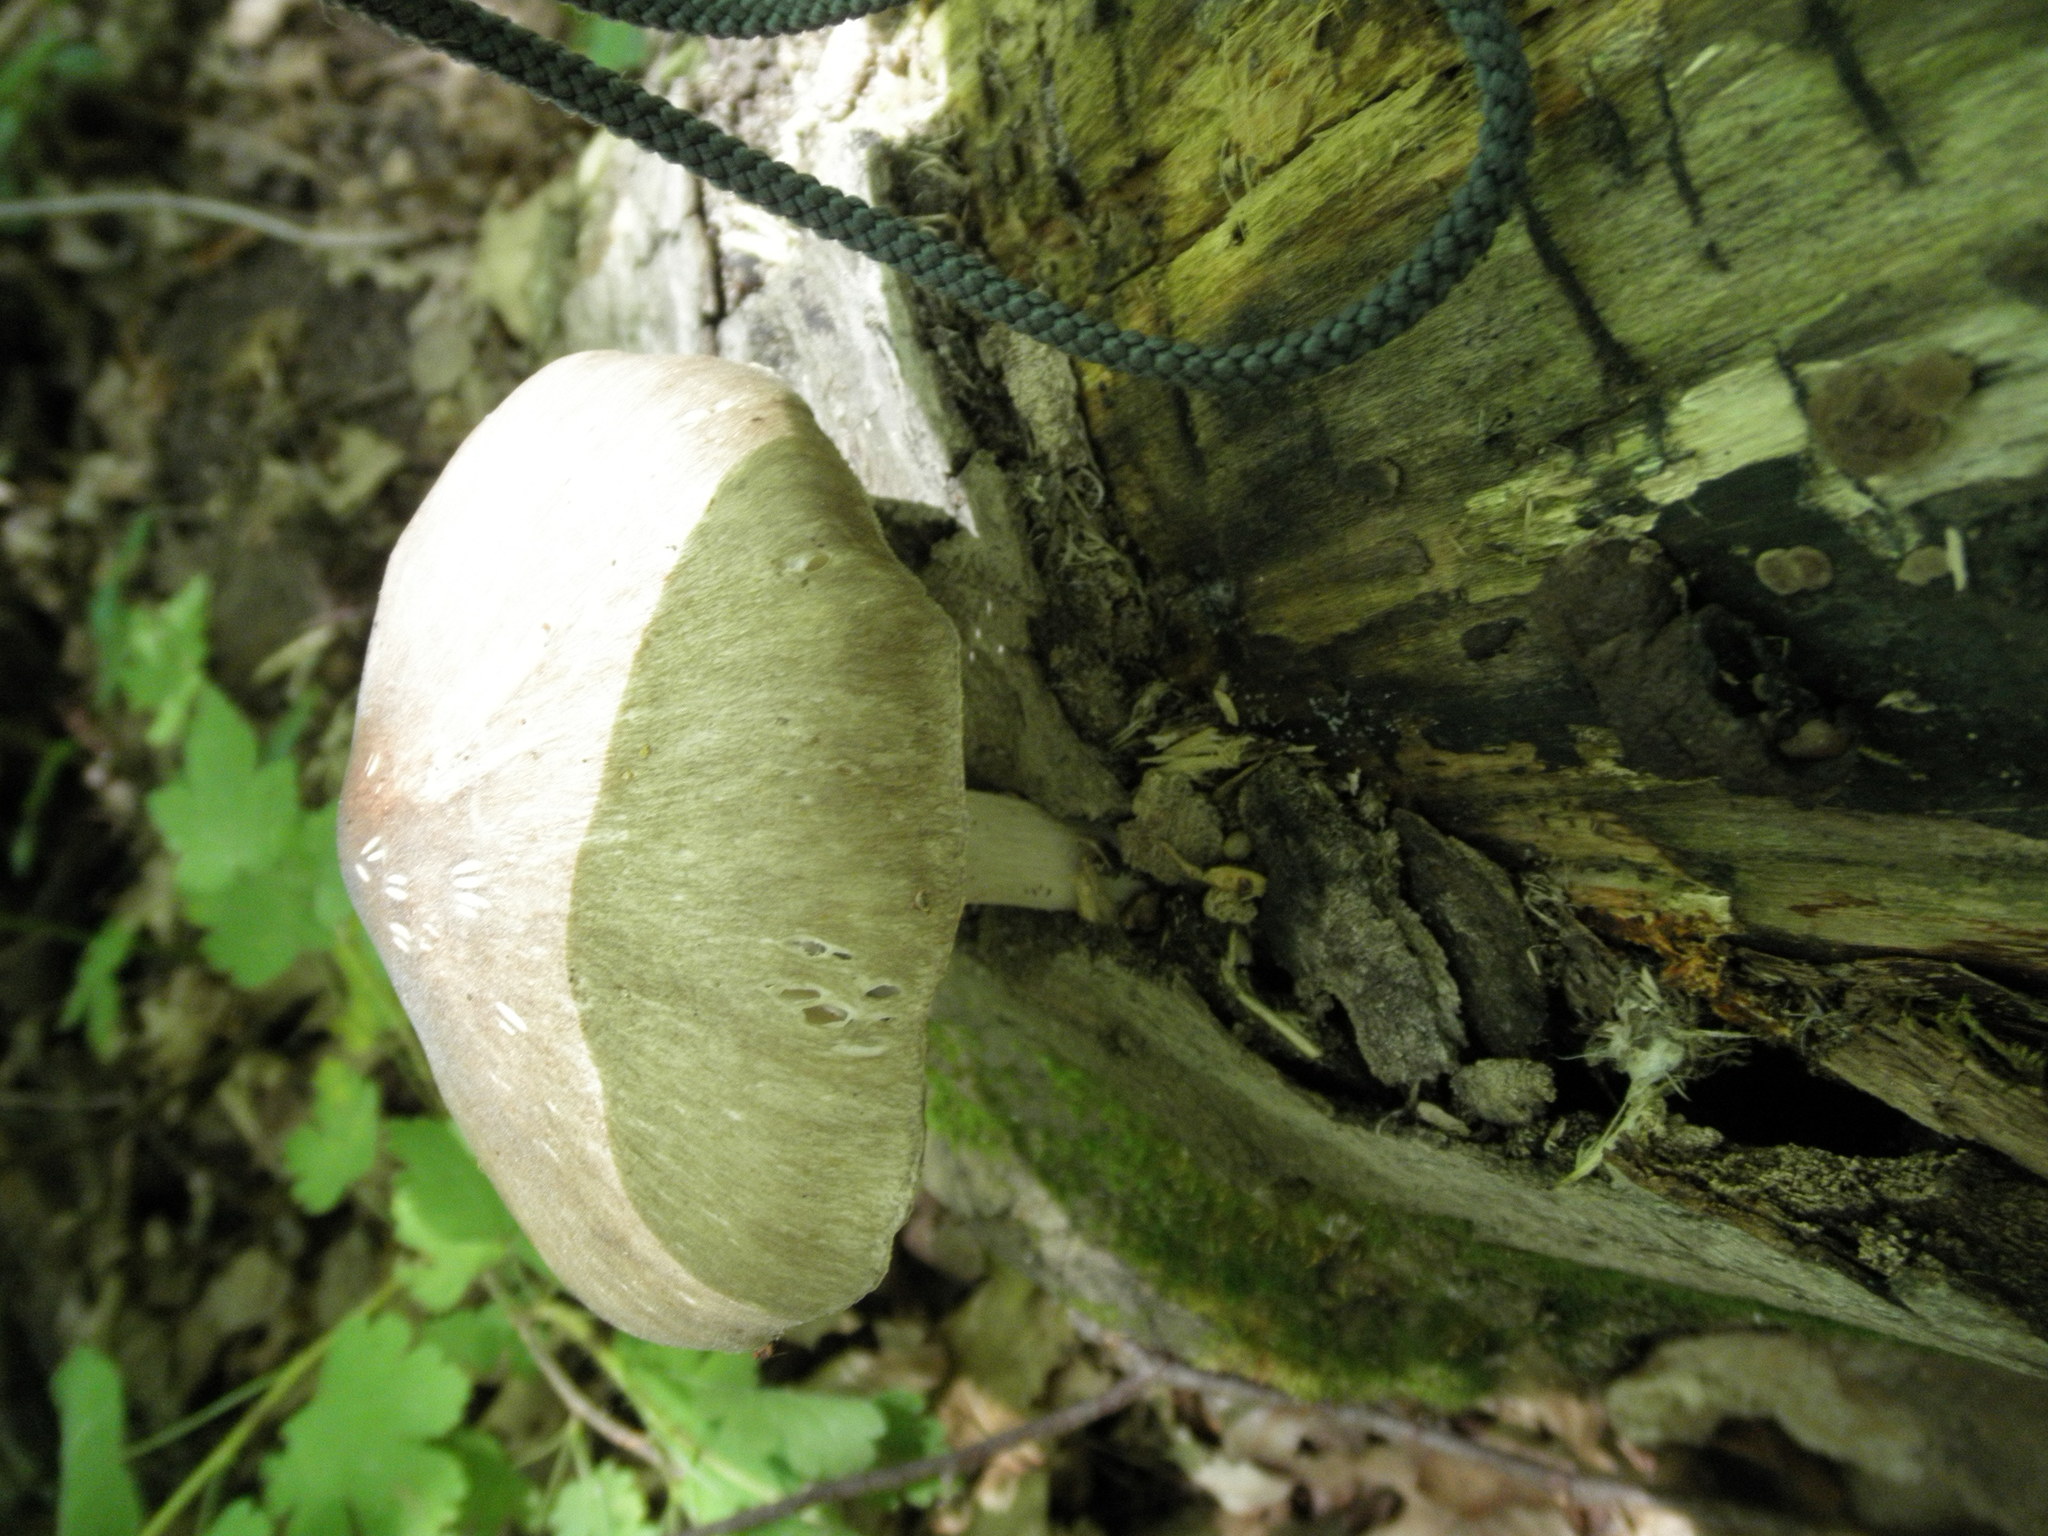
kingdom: Fungi
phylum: Basidiomycota
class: Agaricomycetes
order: Agaricales
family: Tricholomataceae
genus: Megacollybia
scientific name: Megacollybia rodmanii
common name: Eastern american platterful mushroom
